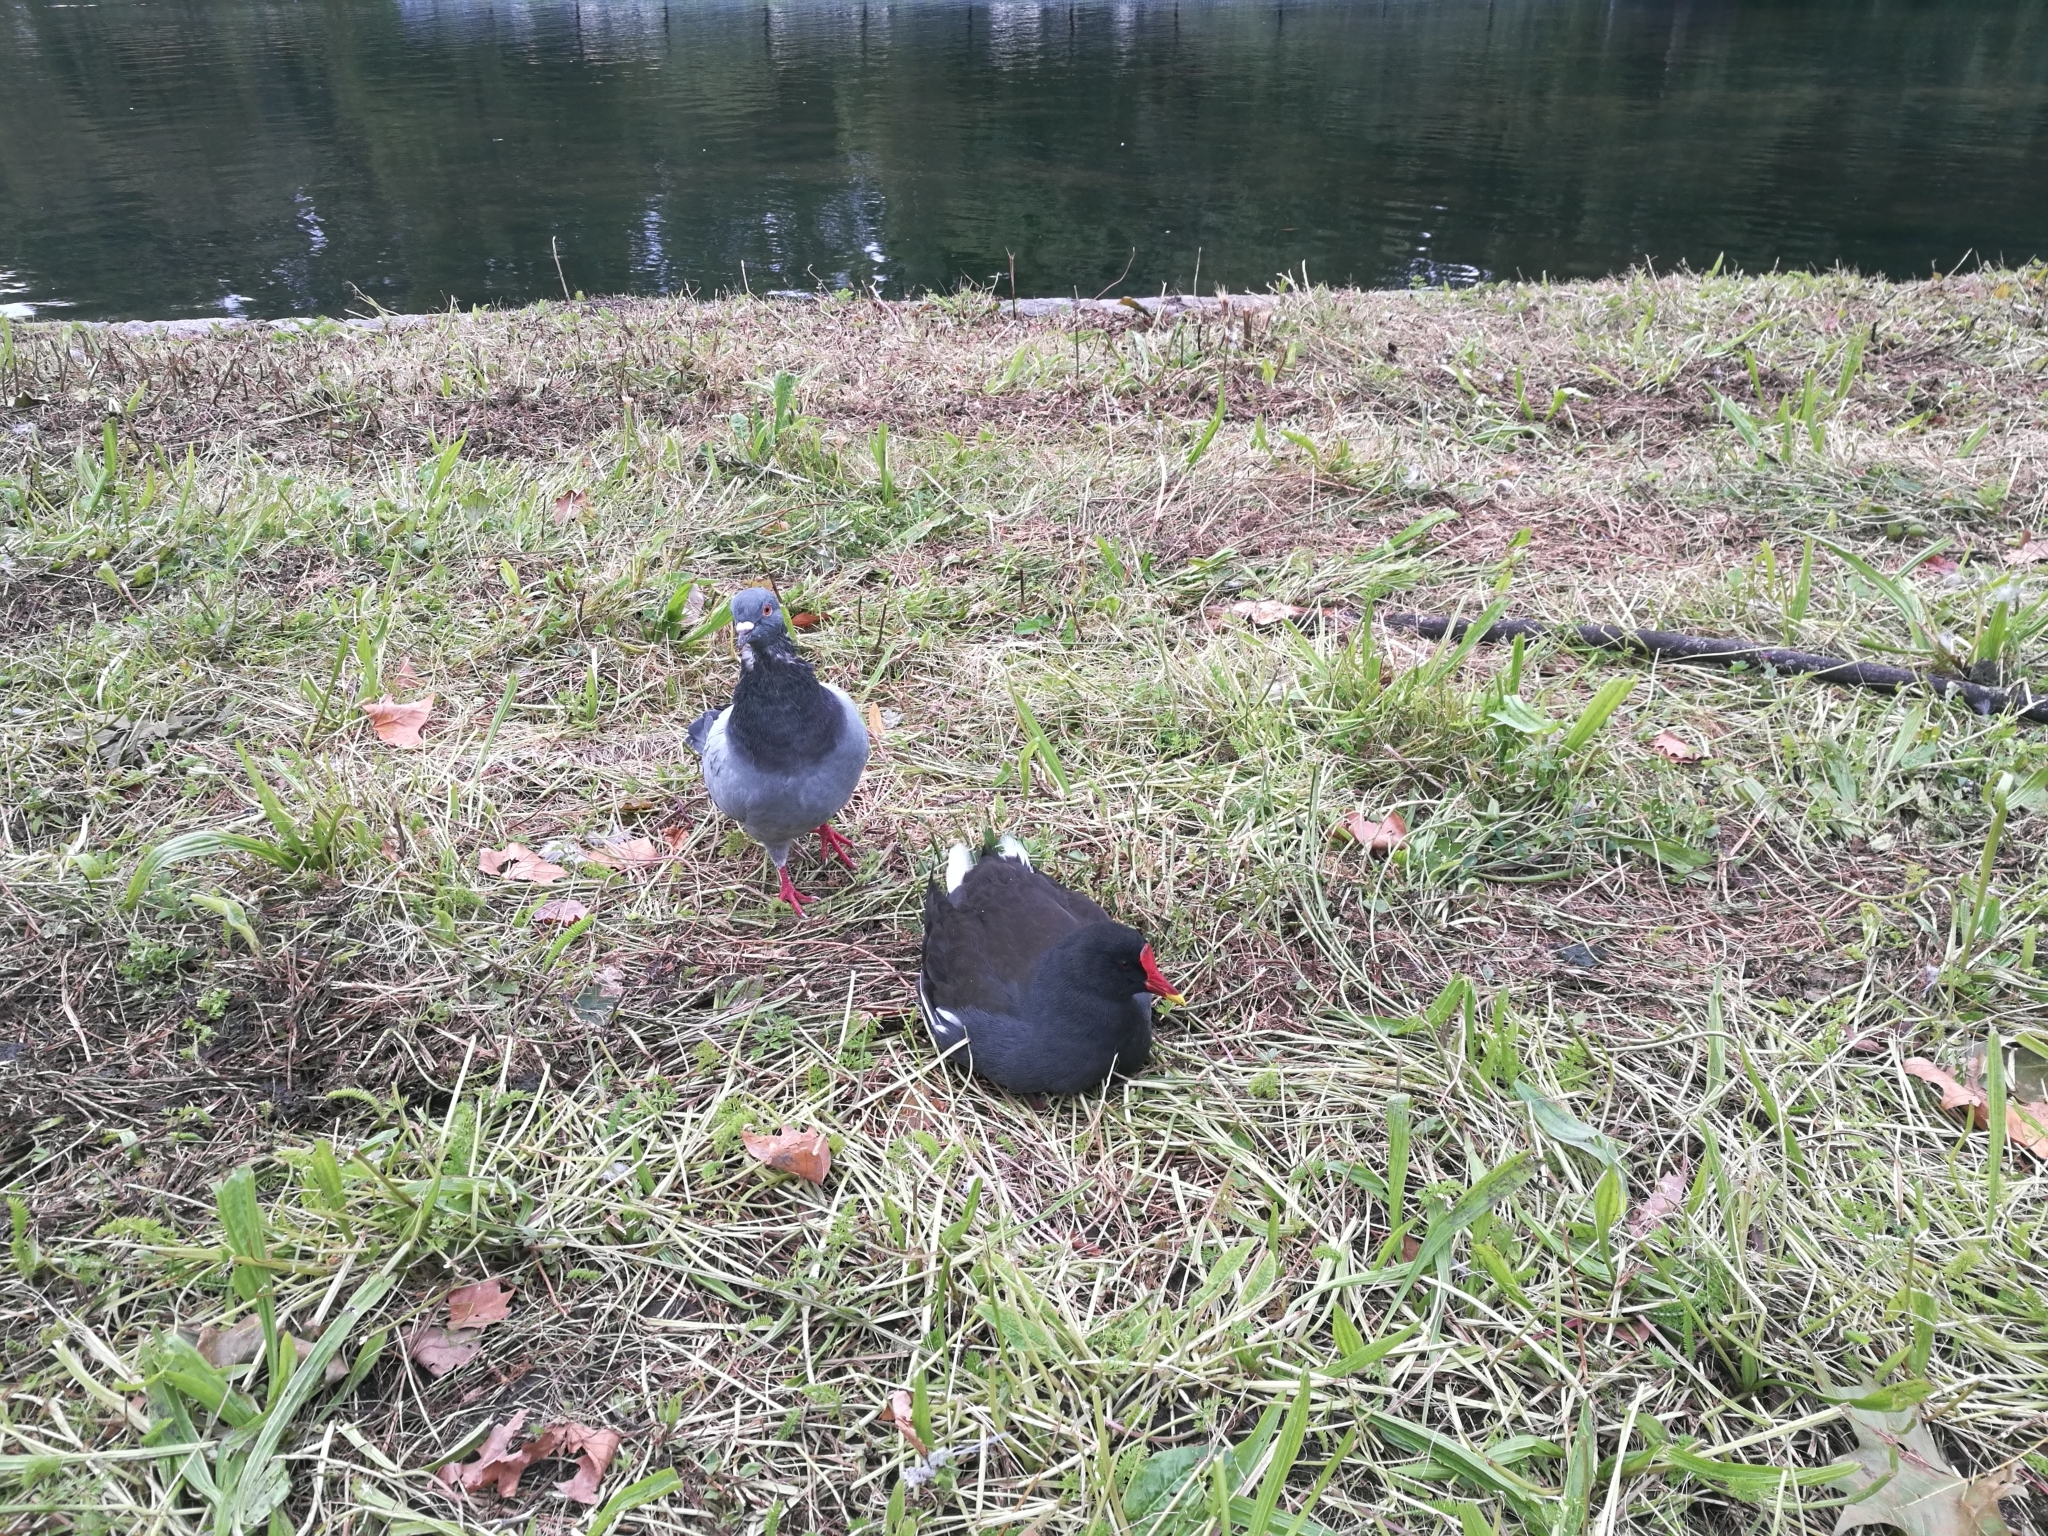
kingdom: Animalia
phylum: Chordata
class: Aves
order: Gruiformes
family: Rallidae
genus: Gallinula
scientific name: Gallinula chloropus
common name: Common moorhen
